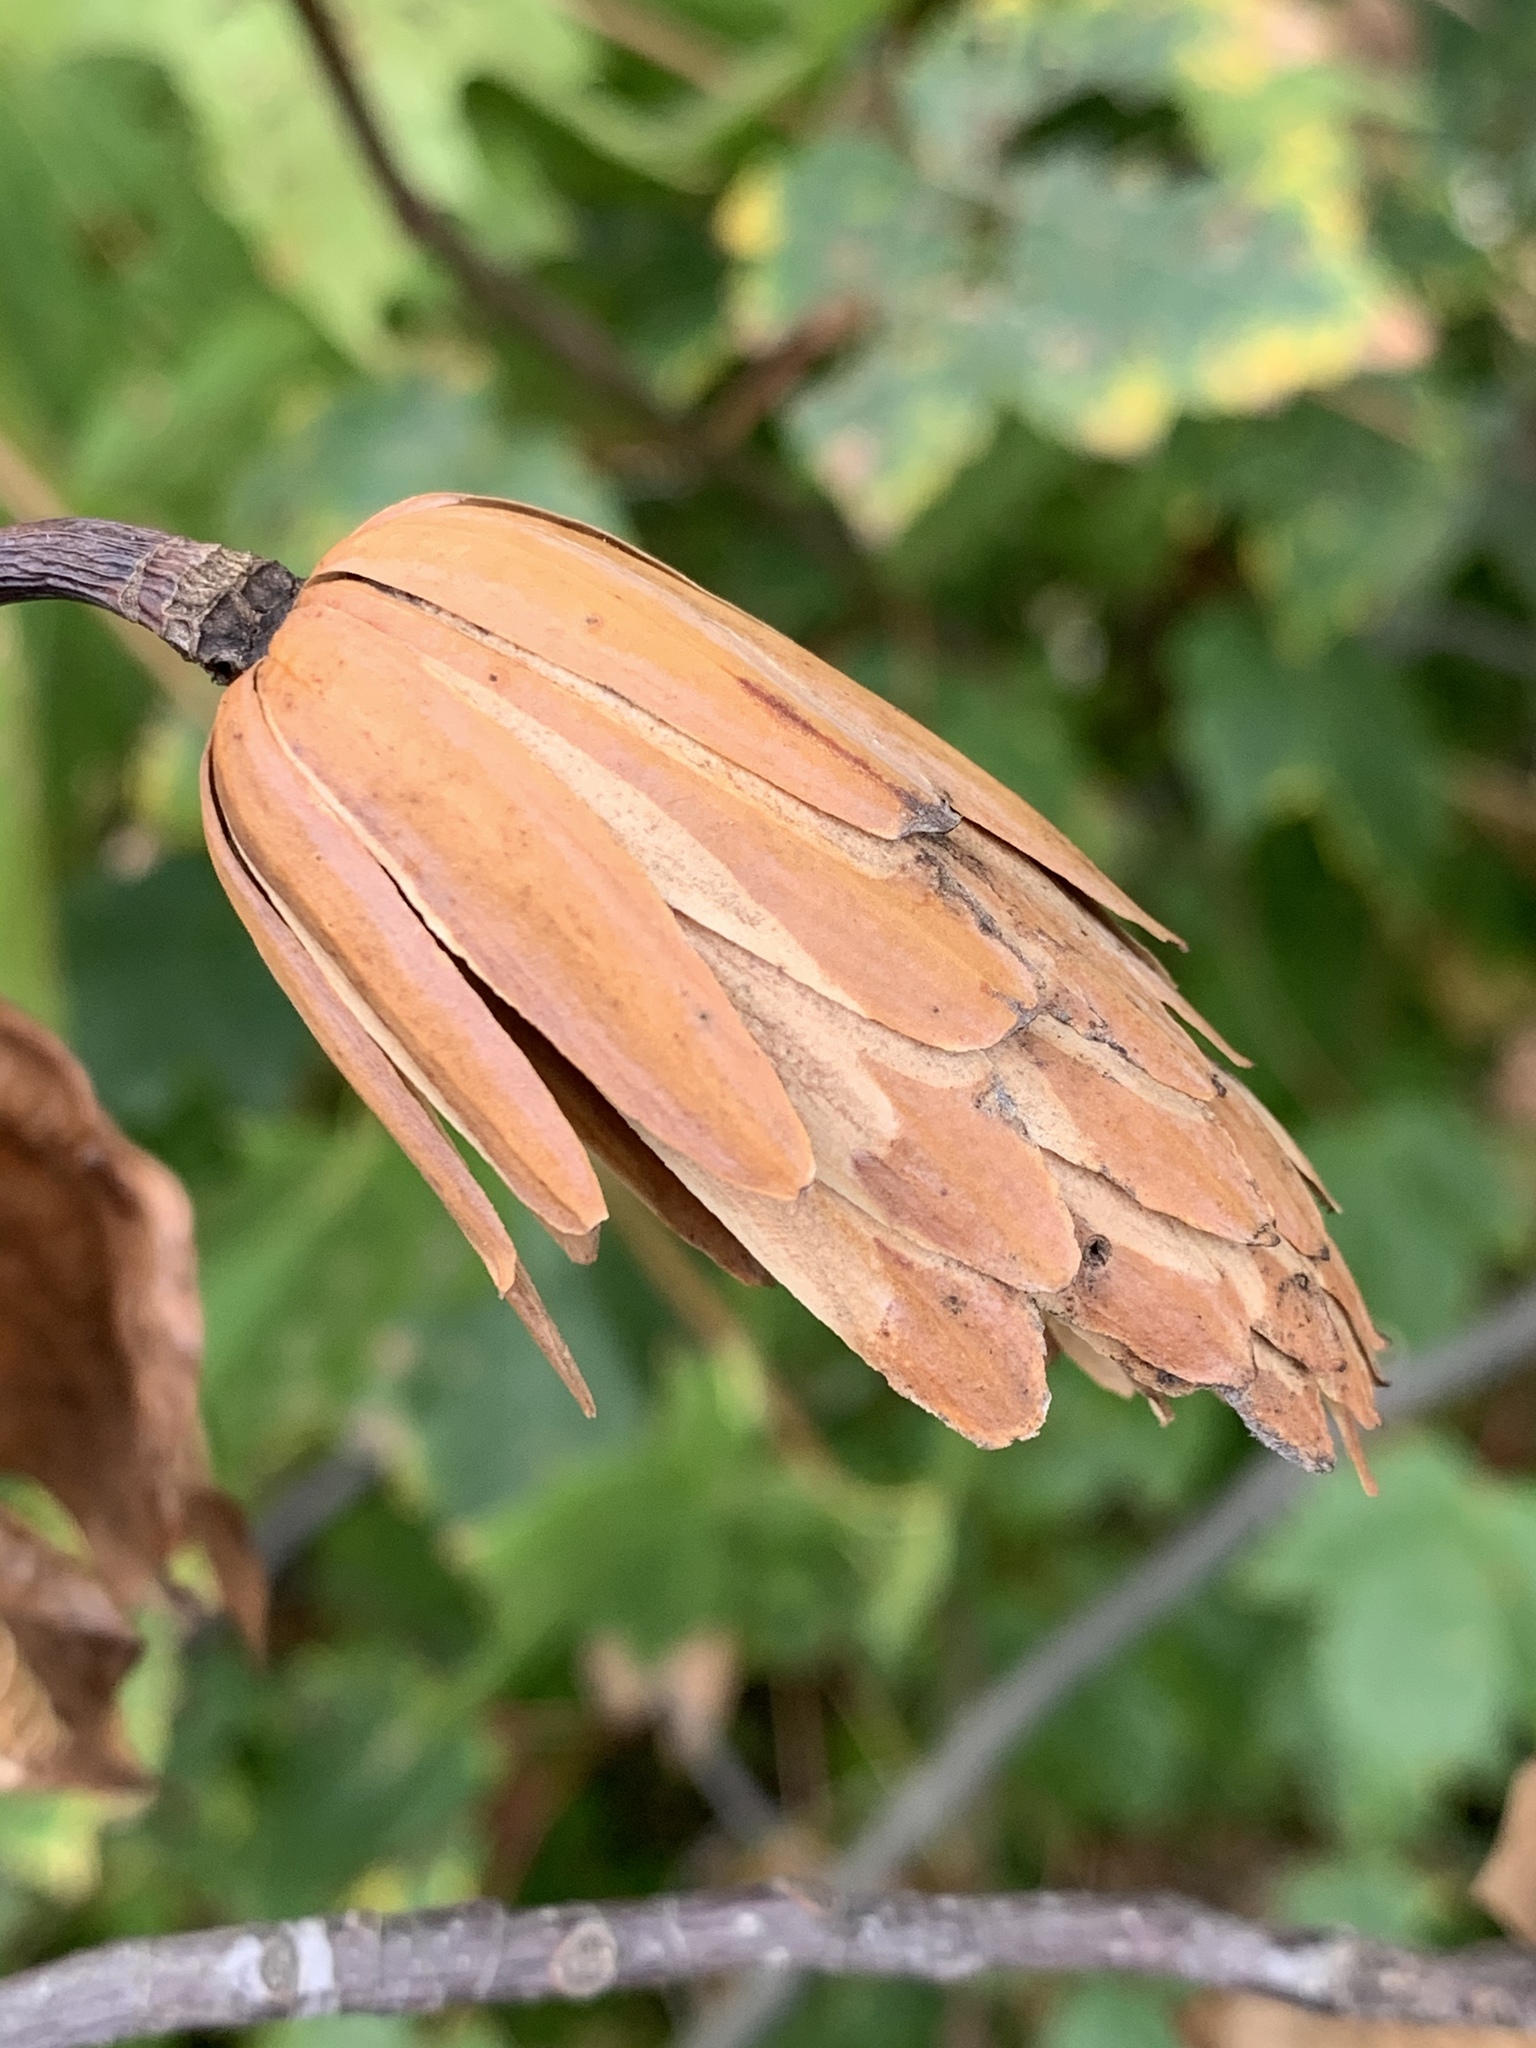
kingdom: Plantae
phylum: Tracheophyta
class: Magnoliopsida
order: Magnoliales
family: Magnoliaceae
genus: Liriodendron
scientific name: Liriodendron tulipifera
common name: Tulip tree
